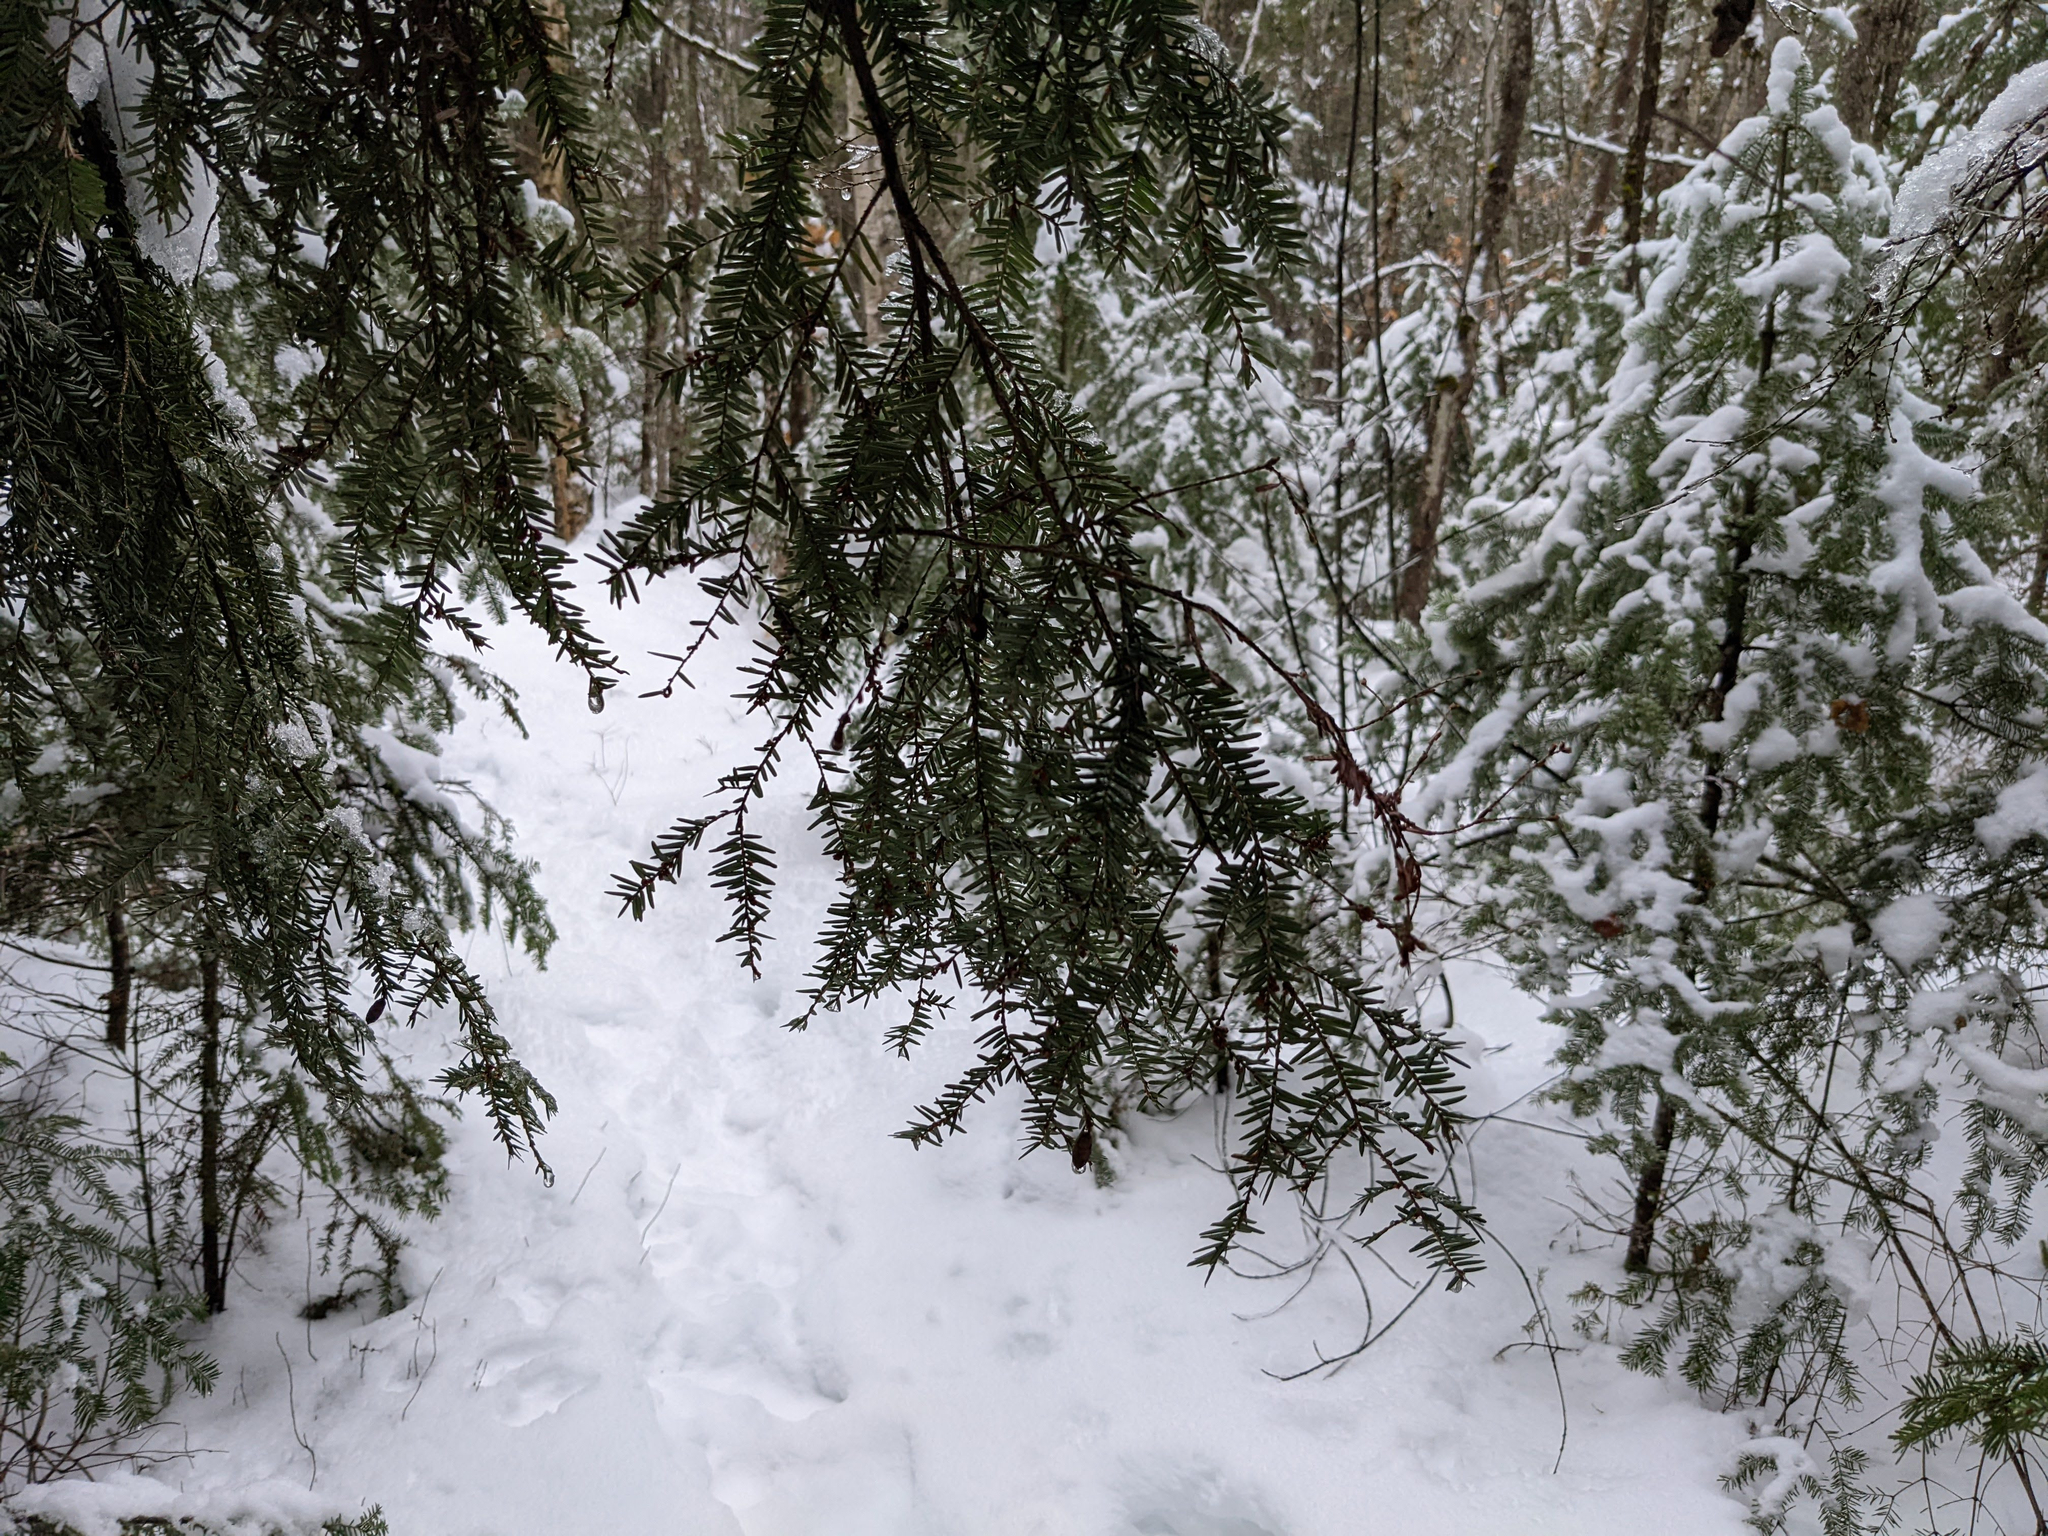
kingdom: Plantae
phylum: Tracheophyta
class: Pinopsida
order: Pinales
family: Pinaceae
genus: Tsuga
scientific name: Tsuga canadensis
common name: Eastern hemlock
